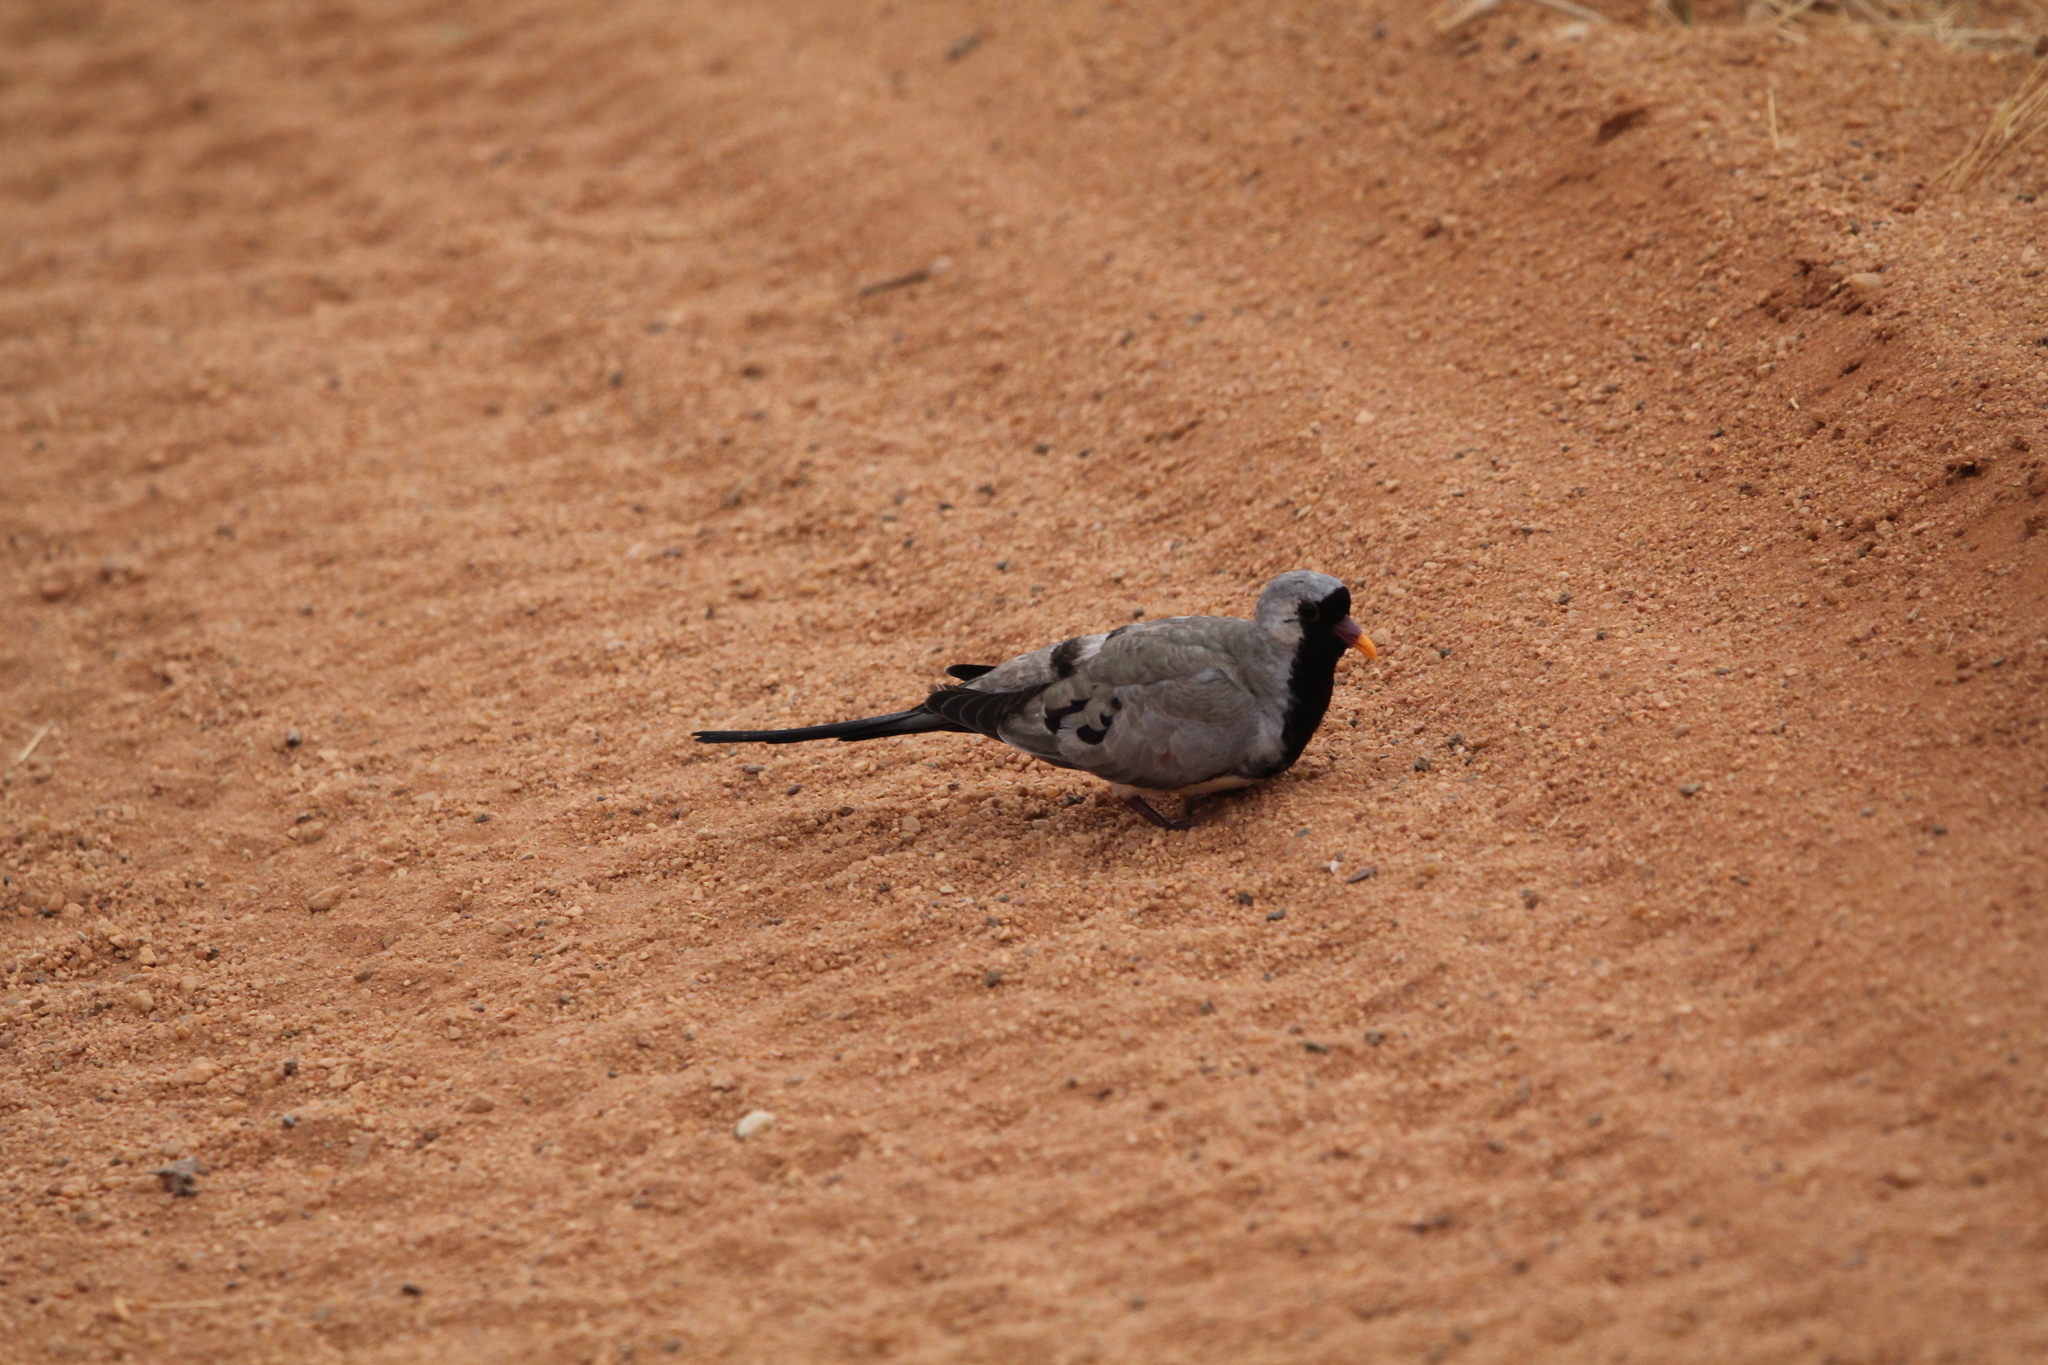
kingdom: Animalia
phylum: Chordata
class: Aves
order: Columbiformes
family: Columbidae
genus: Oena
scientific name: Oena capensis
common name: Namaqua dove
